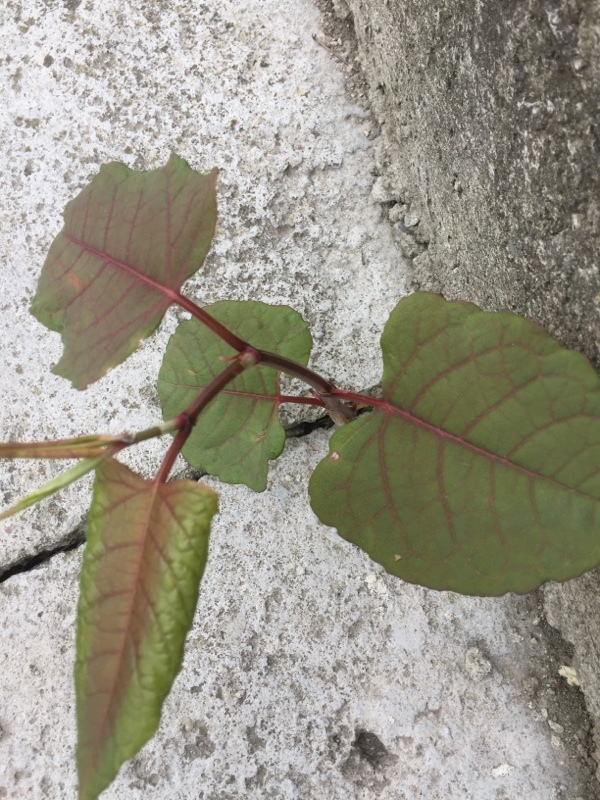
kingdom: Plantae
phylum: Tracheophyta
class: Magnoliopsida
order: Caryophyllales
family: Polygonaceae
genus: Reynoutria
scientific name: Reynoutria japonica
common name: Japanese knotweed
